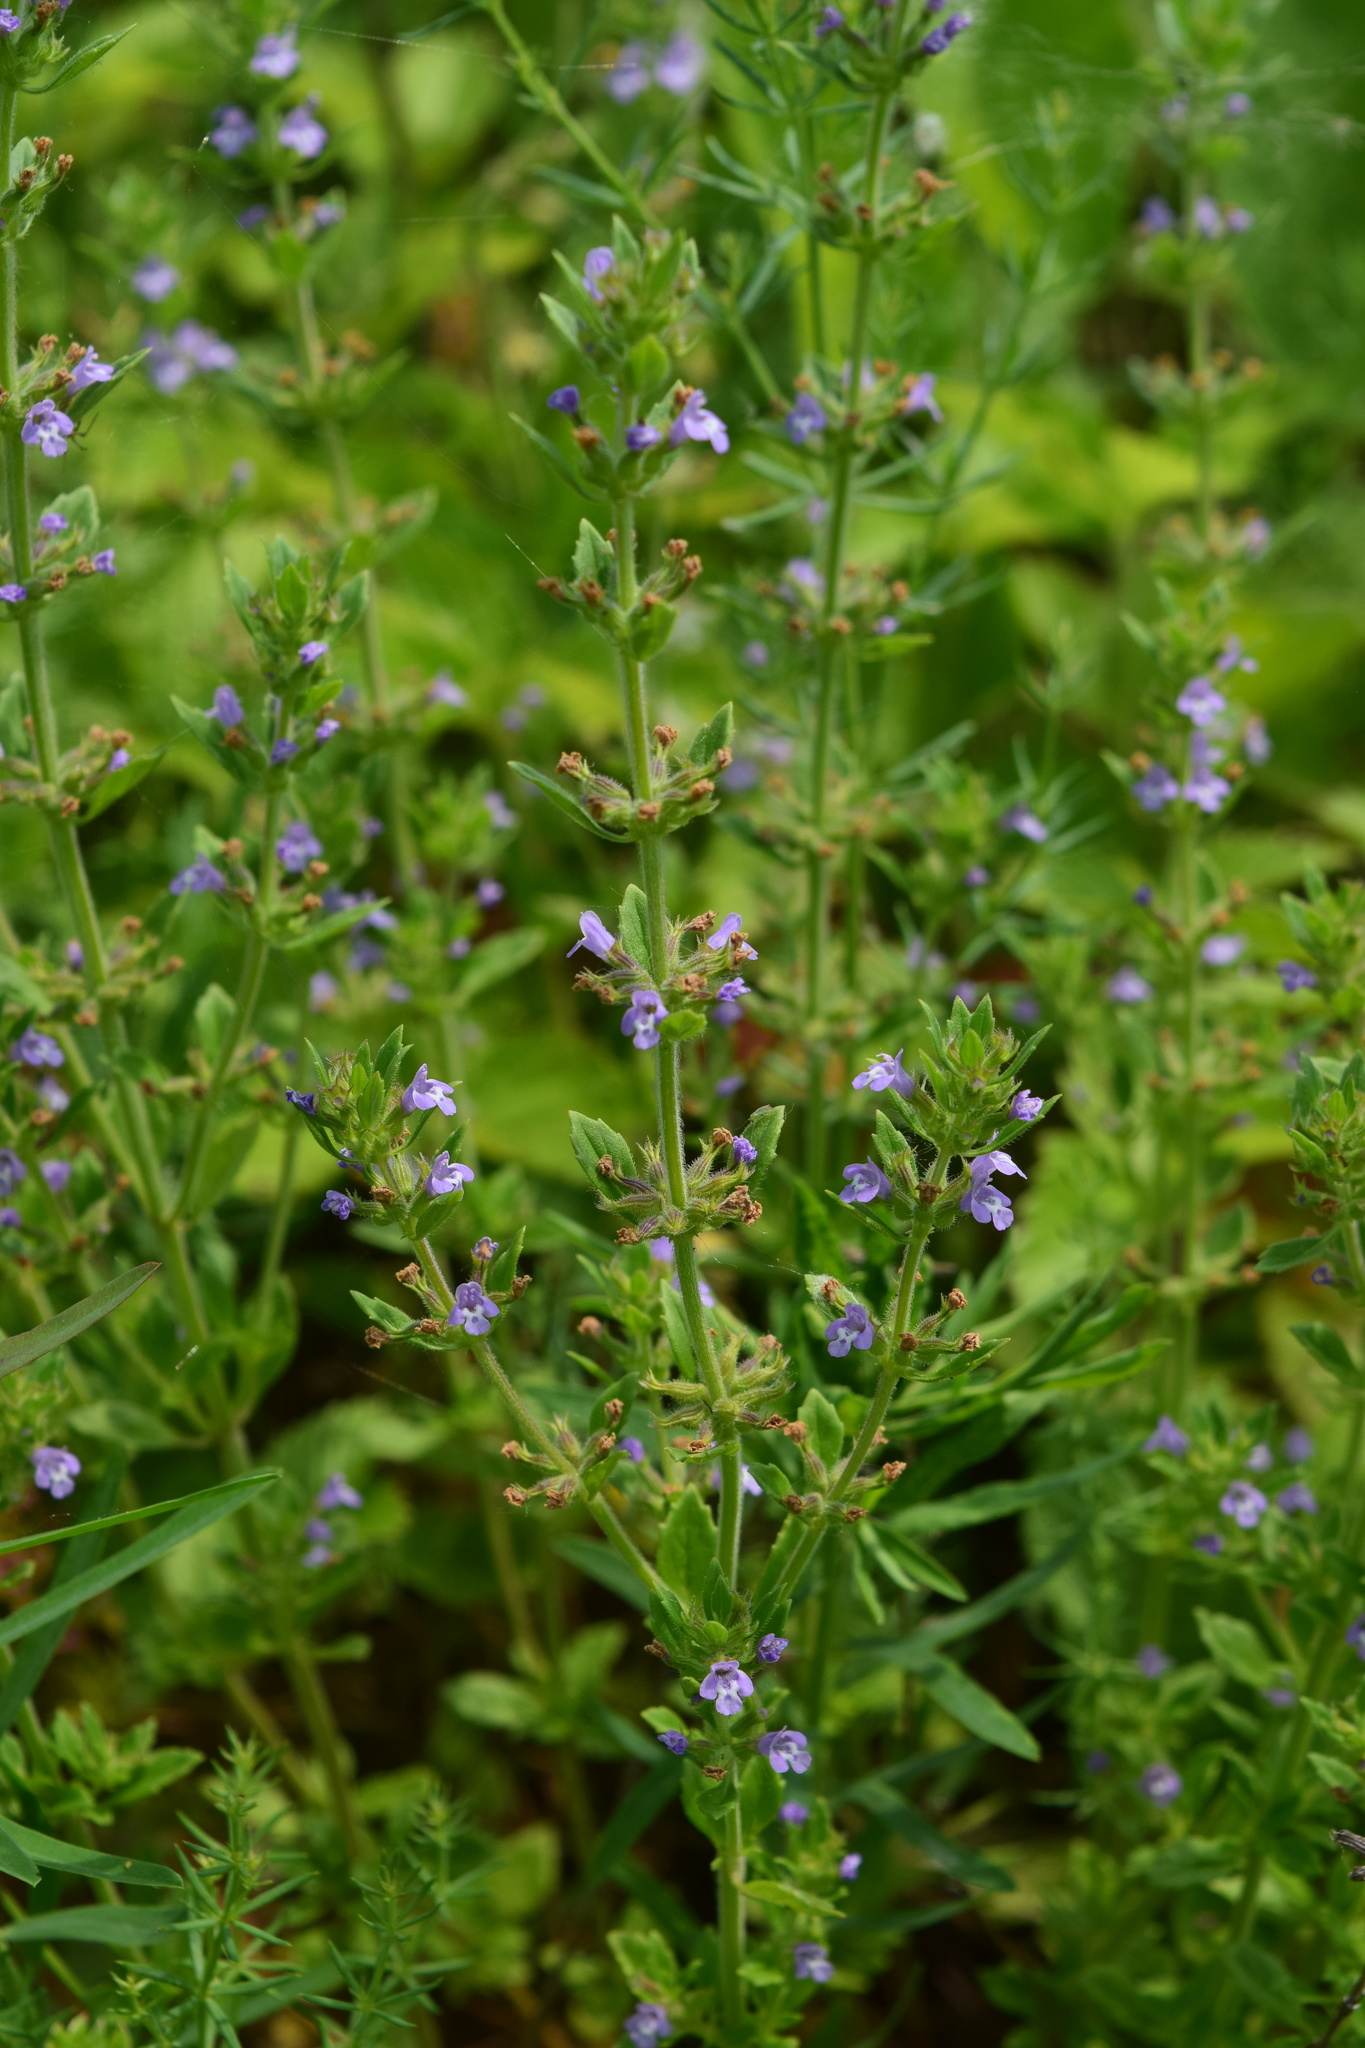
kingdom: Plantae
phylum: Tracheophyta
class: Magnoliopsida
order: Lamiales
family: Lamiaceae
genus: Clinopodium
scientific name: Clinopodium acinos
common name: Basil thyme
